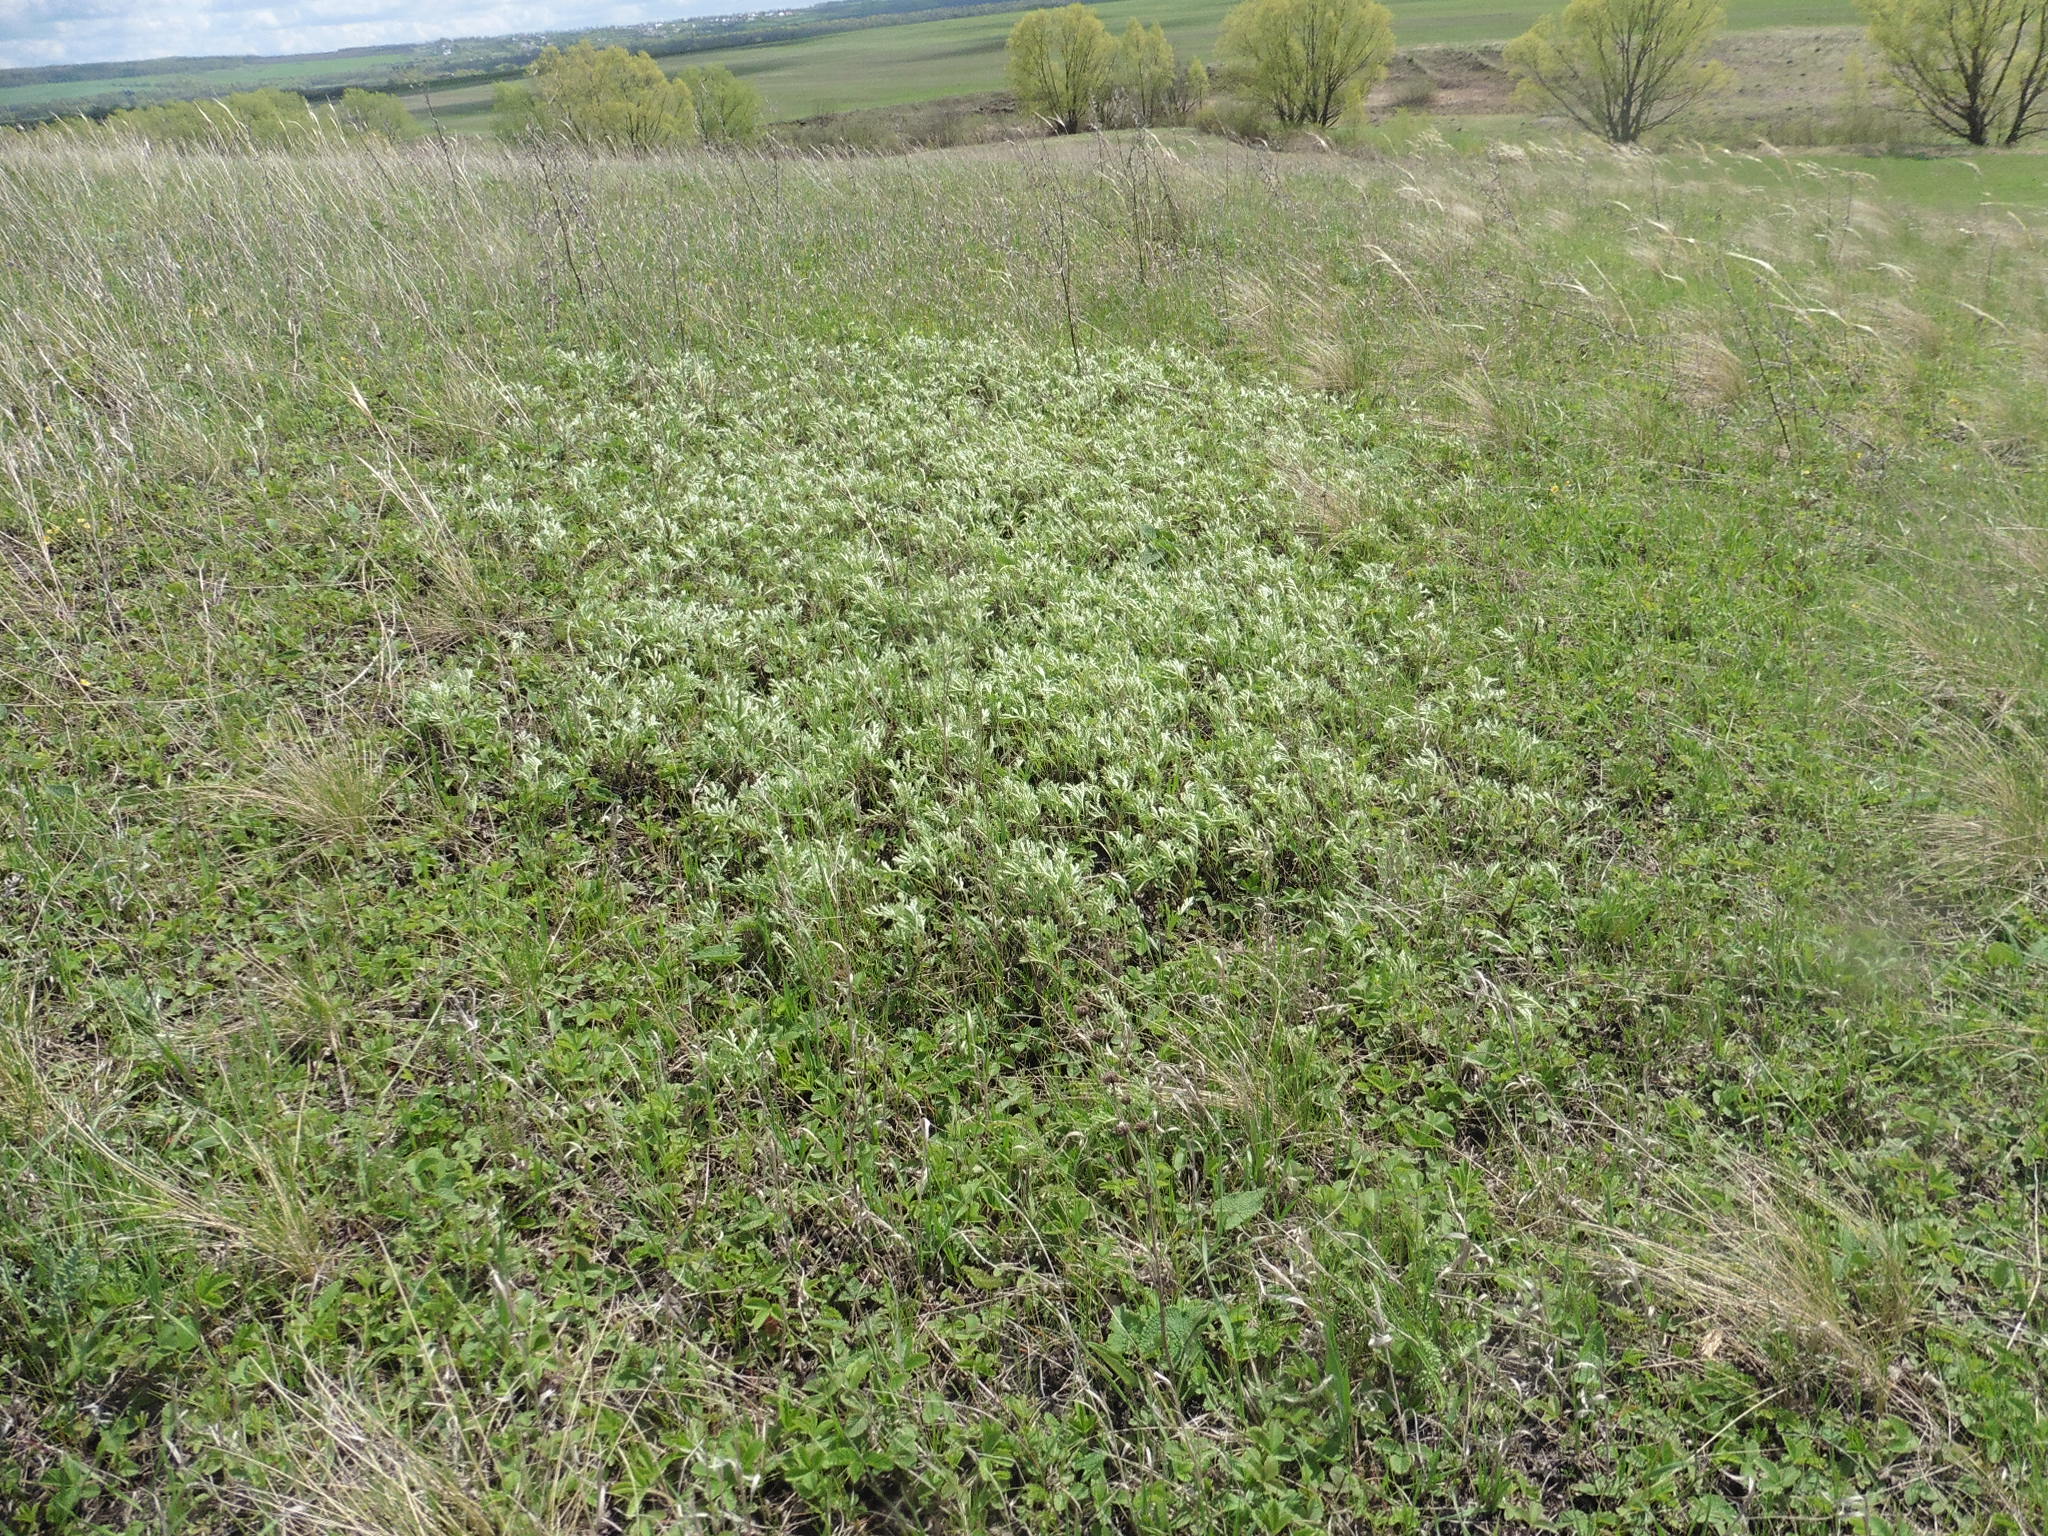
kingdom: Plantae
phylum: Tracheophyta
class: Magnoliopsida
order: Asterales
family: Asteraceae
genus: Artemisia
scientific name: Artemisia armeniaca
